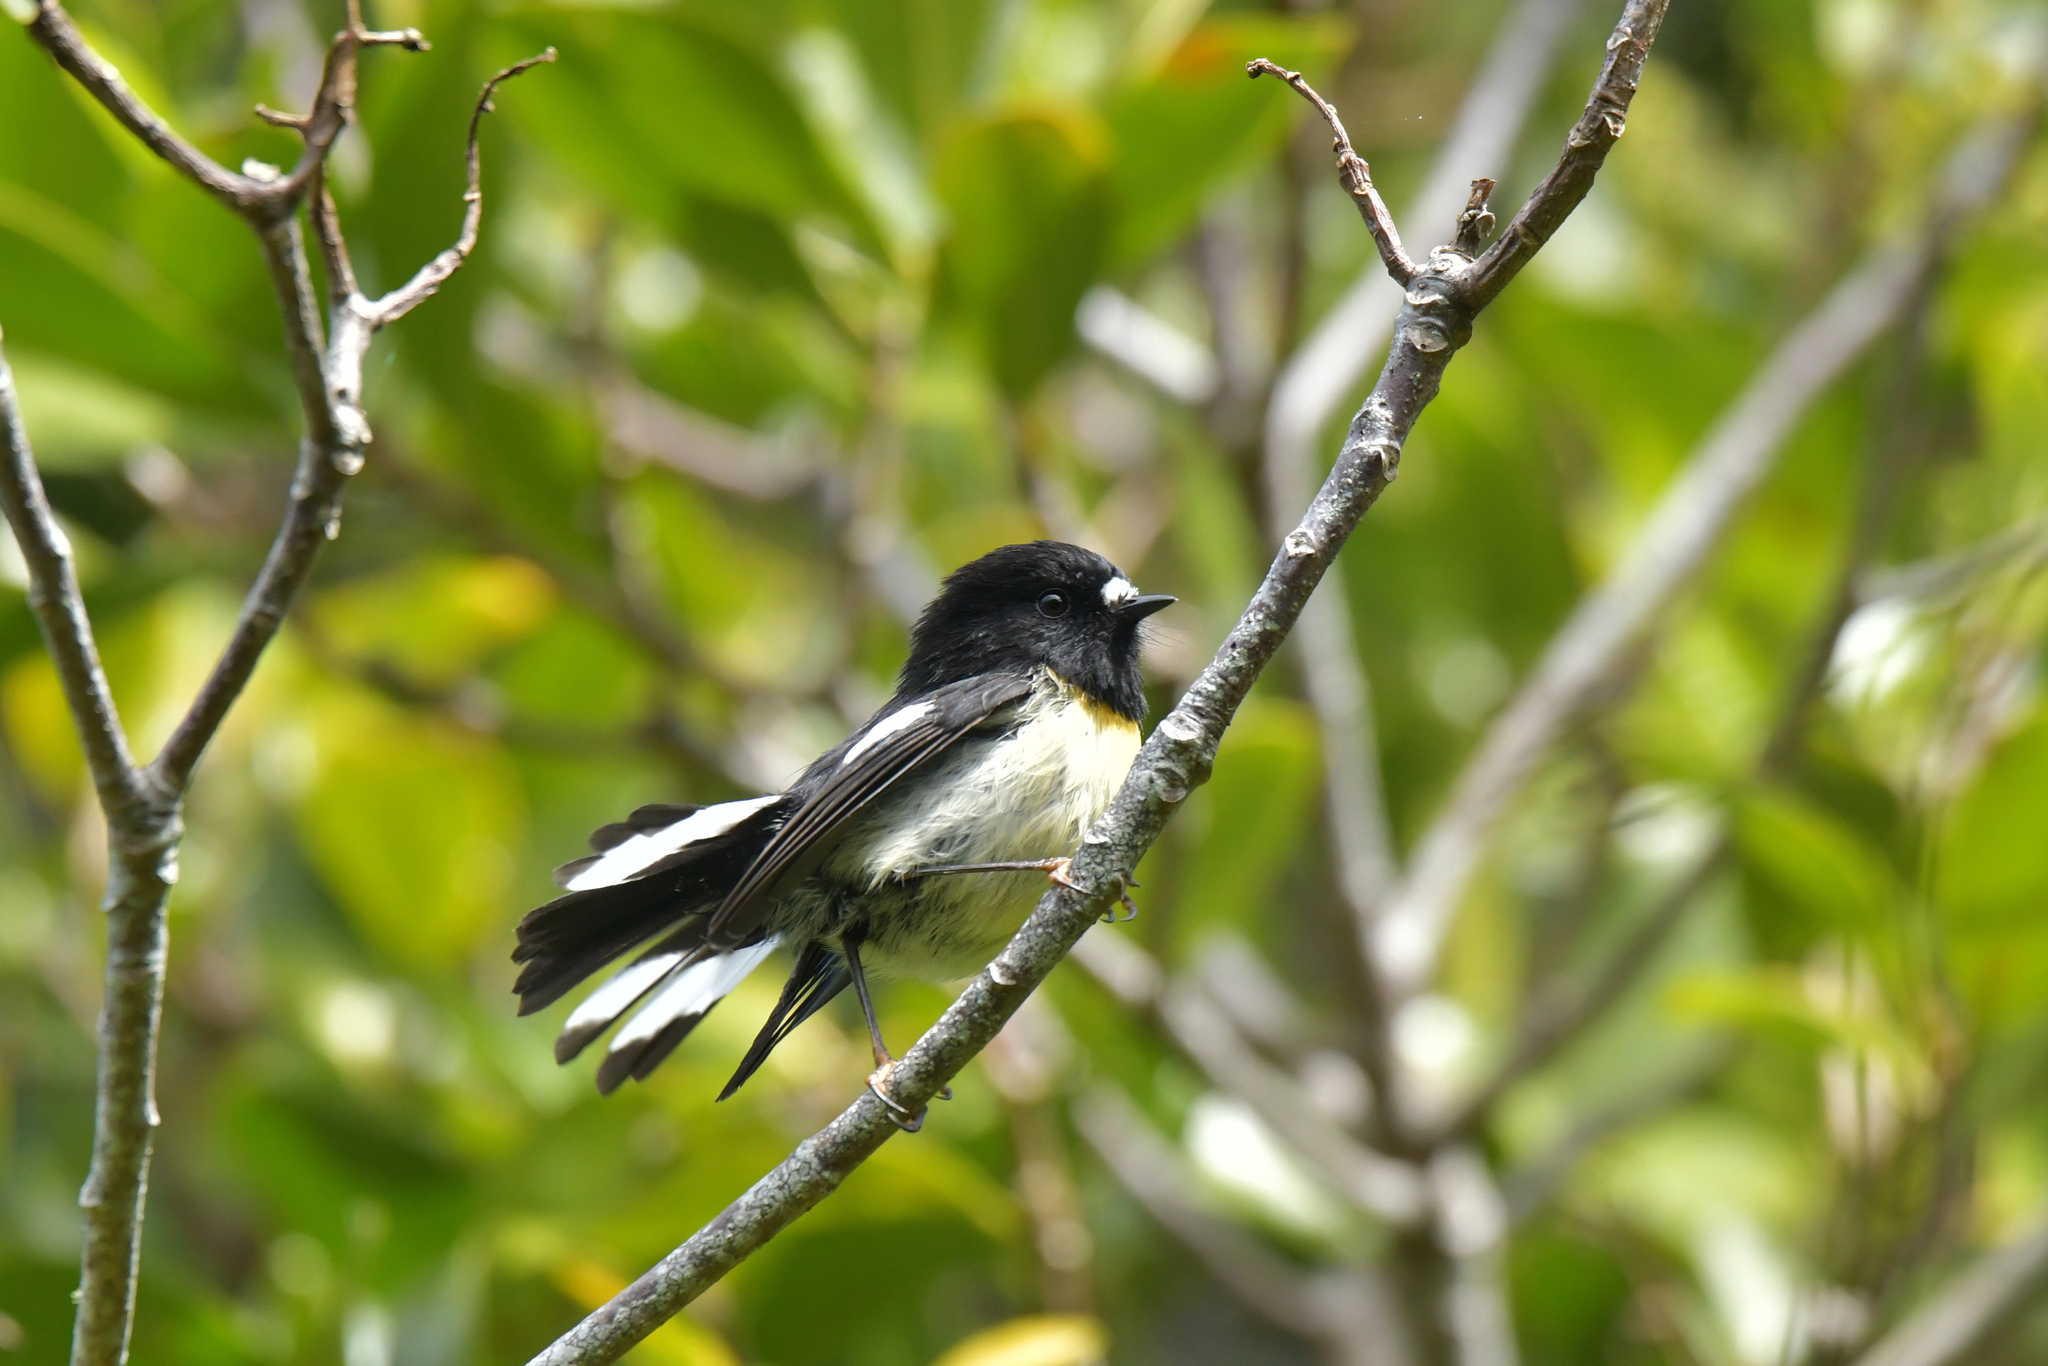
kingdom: Animalia
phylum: Chordata
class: Aves
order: Passeriformes
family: Petroicidae
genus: Petroica
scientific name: Petroica macrocephala
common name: Tomtit
